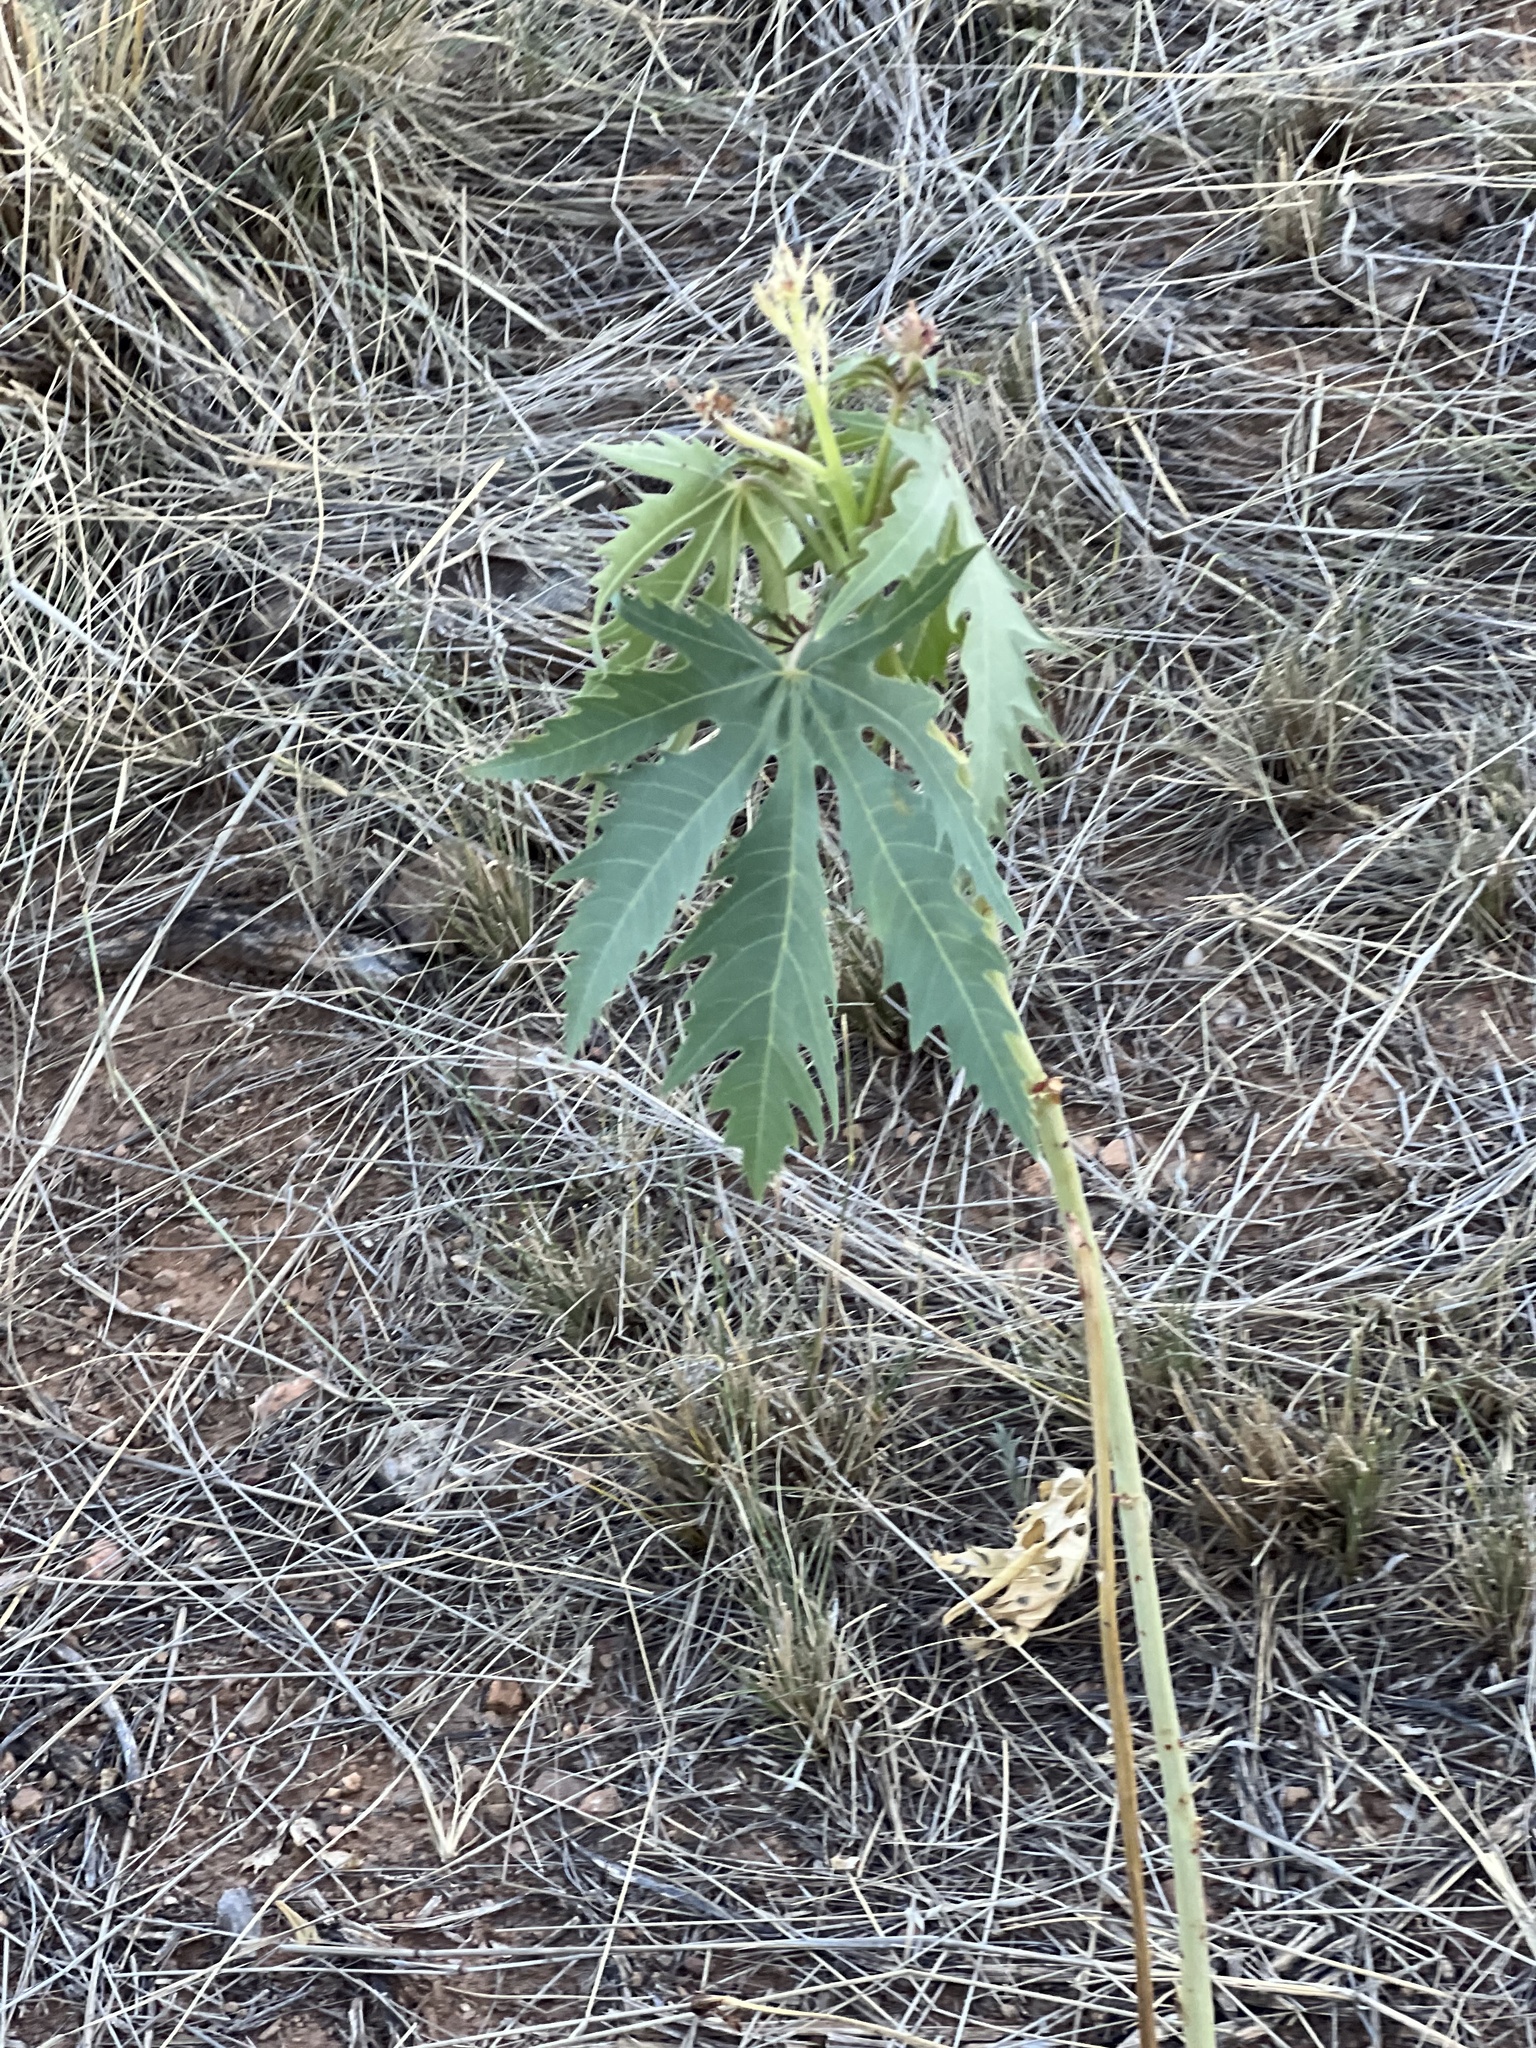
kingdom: Plantae
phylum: Tracheophyta
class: Magnoliopsida
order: Malpighiales
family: Euphorbiaceae
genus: Jatropha
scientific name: Jatropha macrorhiza
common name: Ragged nettlespurge
